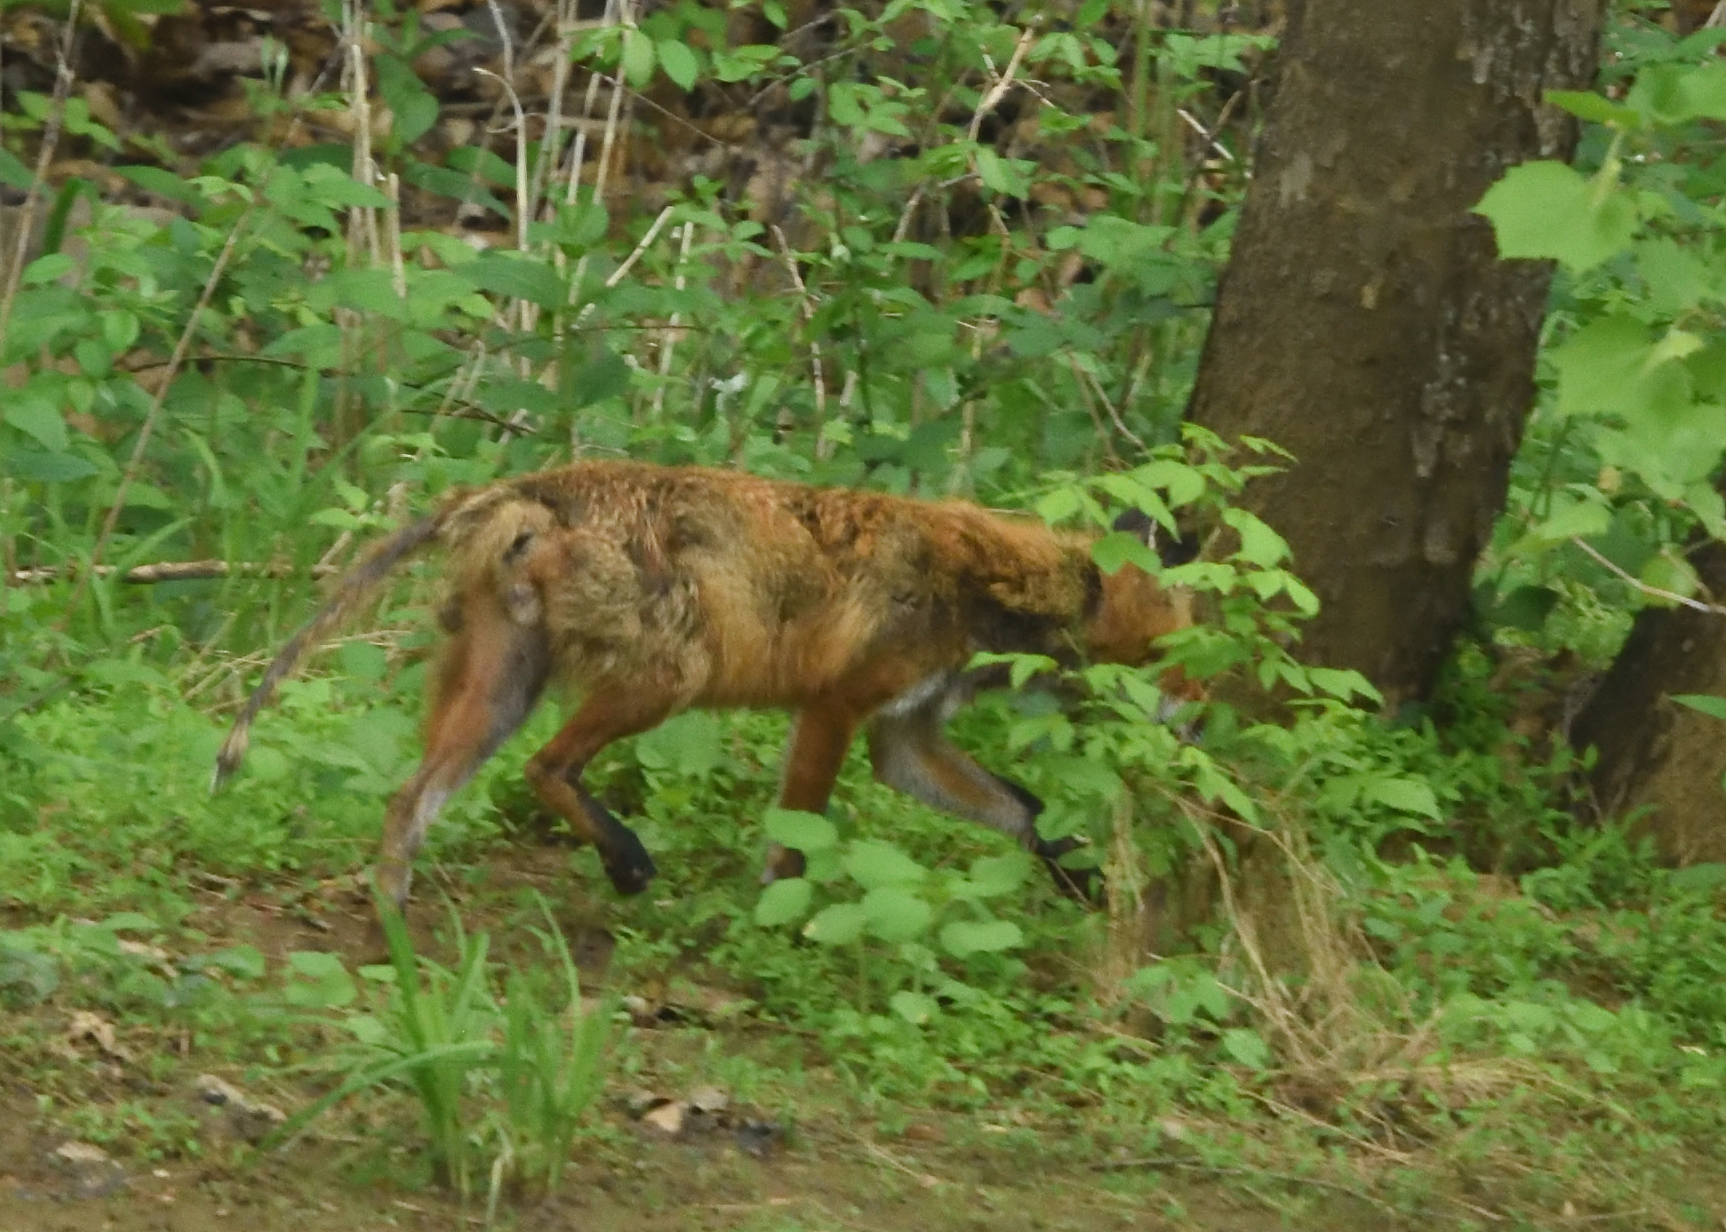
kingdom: Animalia
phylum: Chordata
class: Mammalia
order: Carnivora
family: Canidae
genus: Vulpes
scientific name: Vulpes vulpes
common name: Red fox
